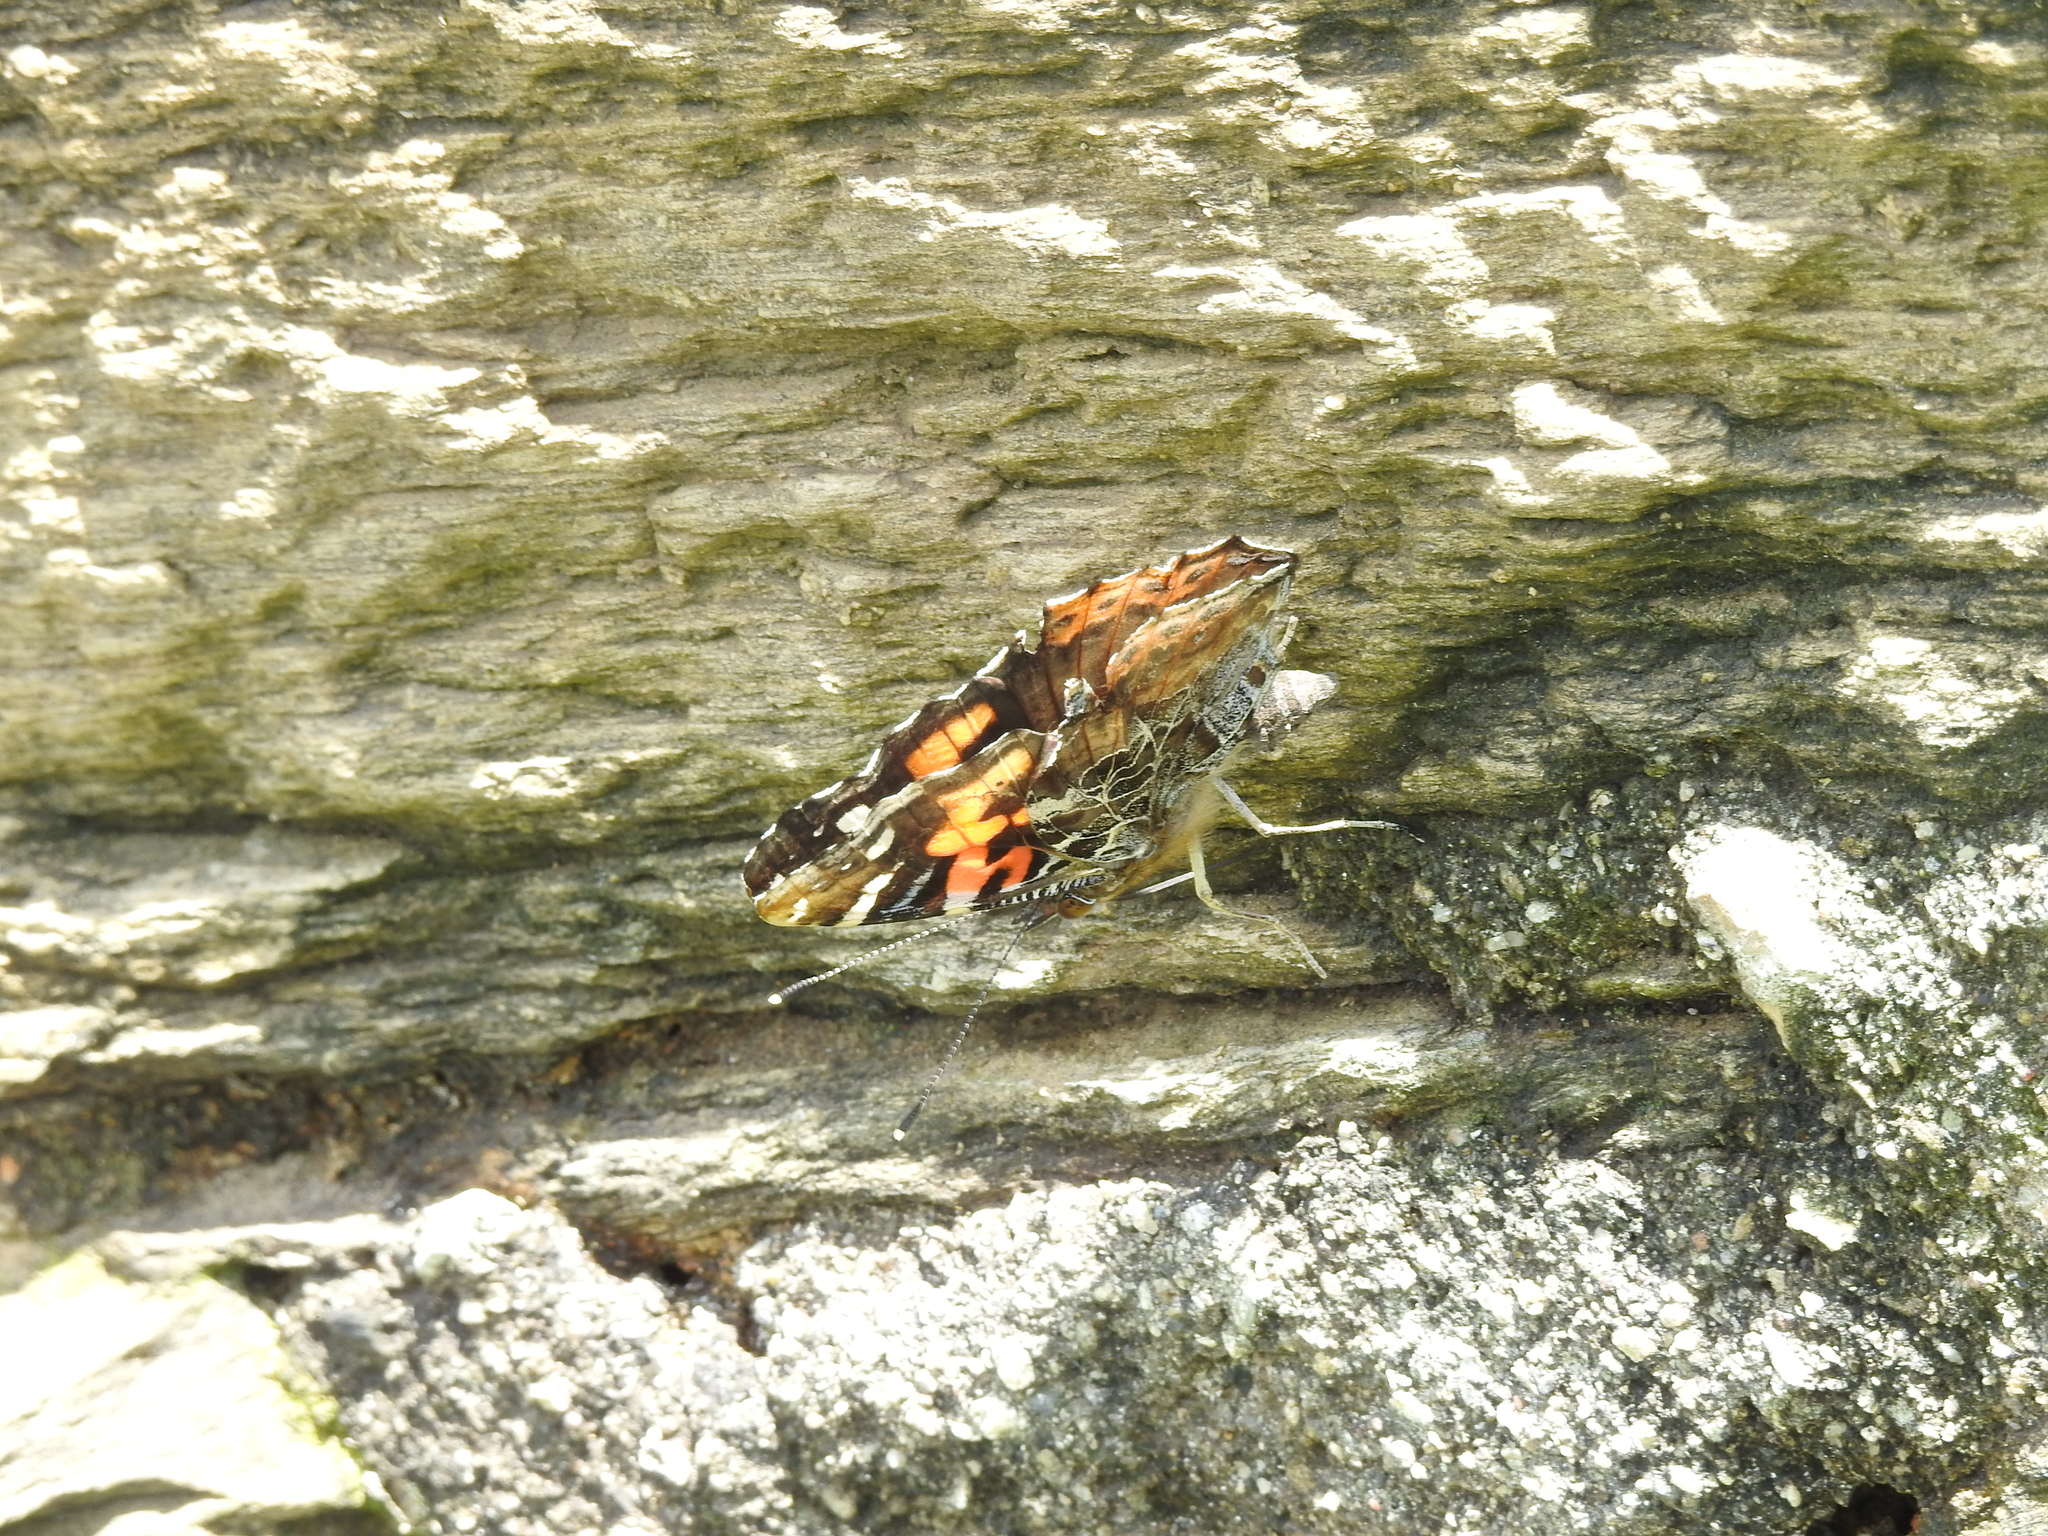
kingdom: Animalia
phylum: Arthropoda
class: Insecta
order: Lepidoptera
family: Nymphalidae
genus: Vanessa
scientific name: Vanessa indica
